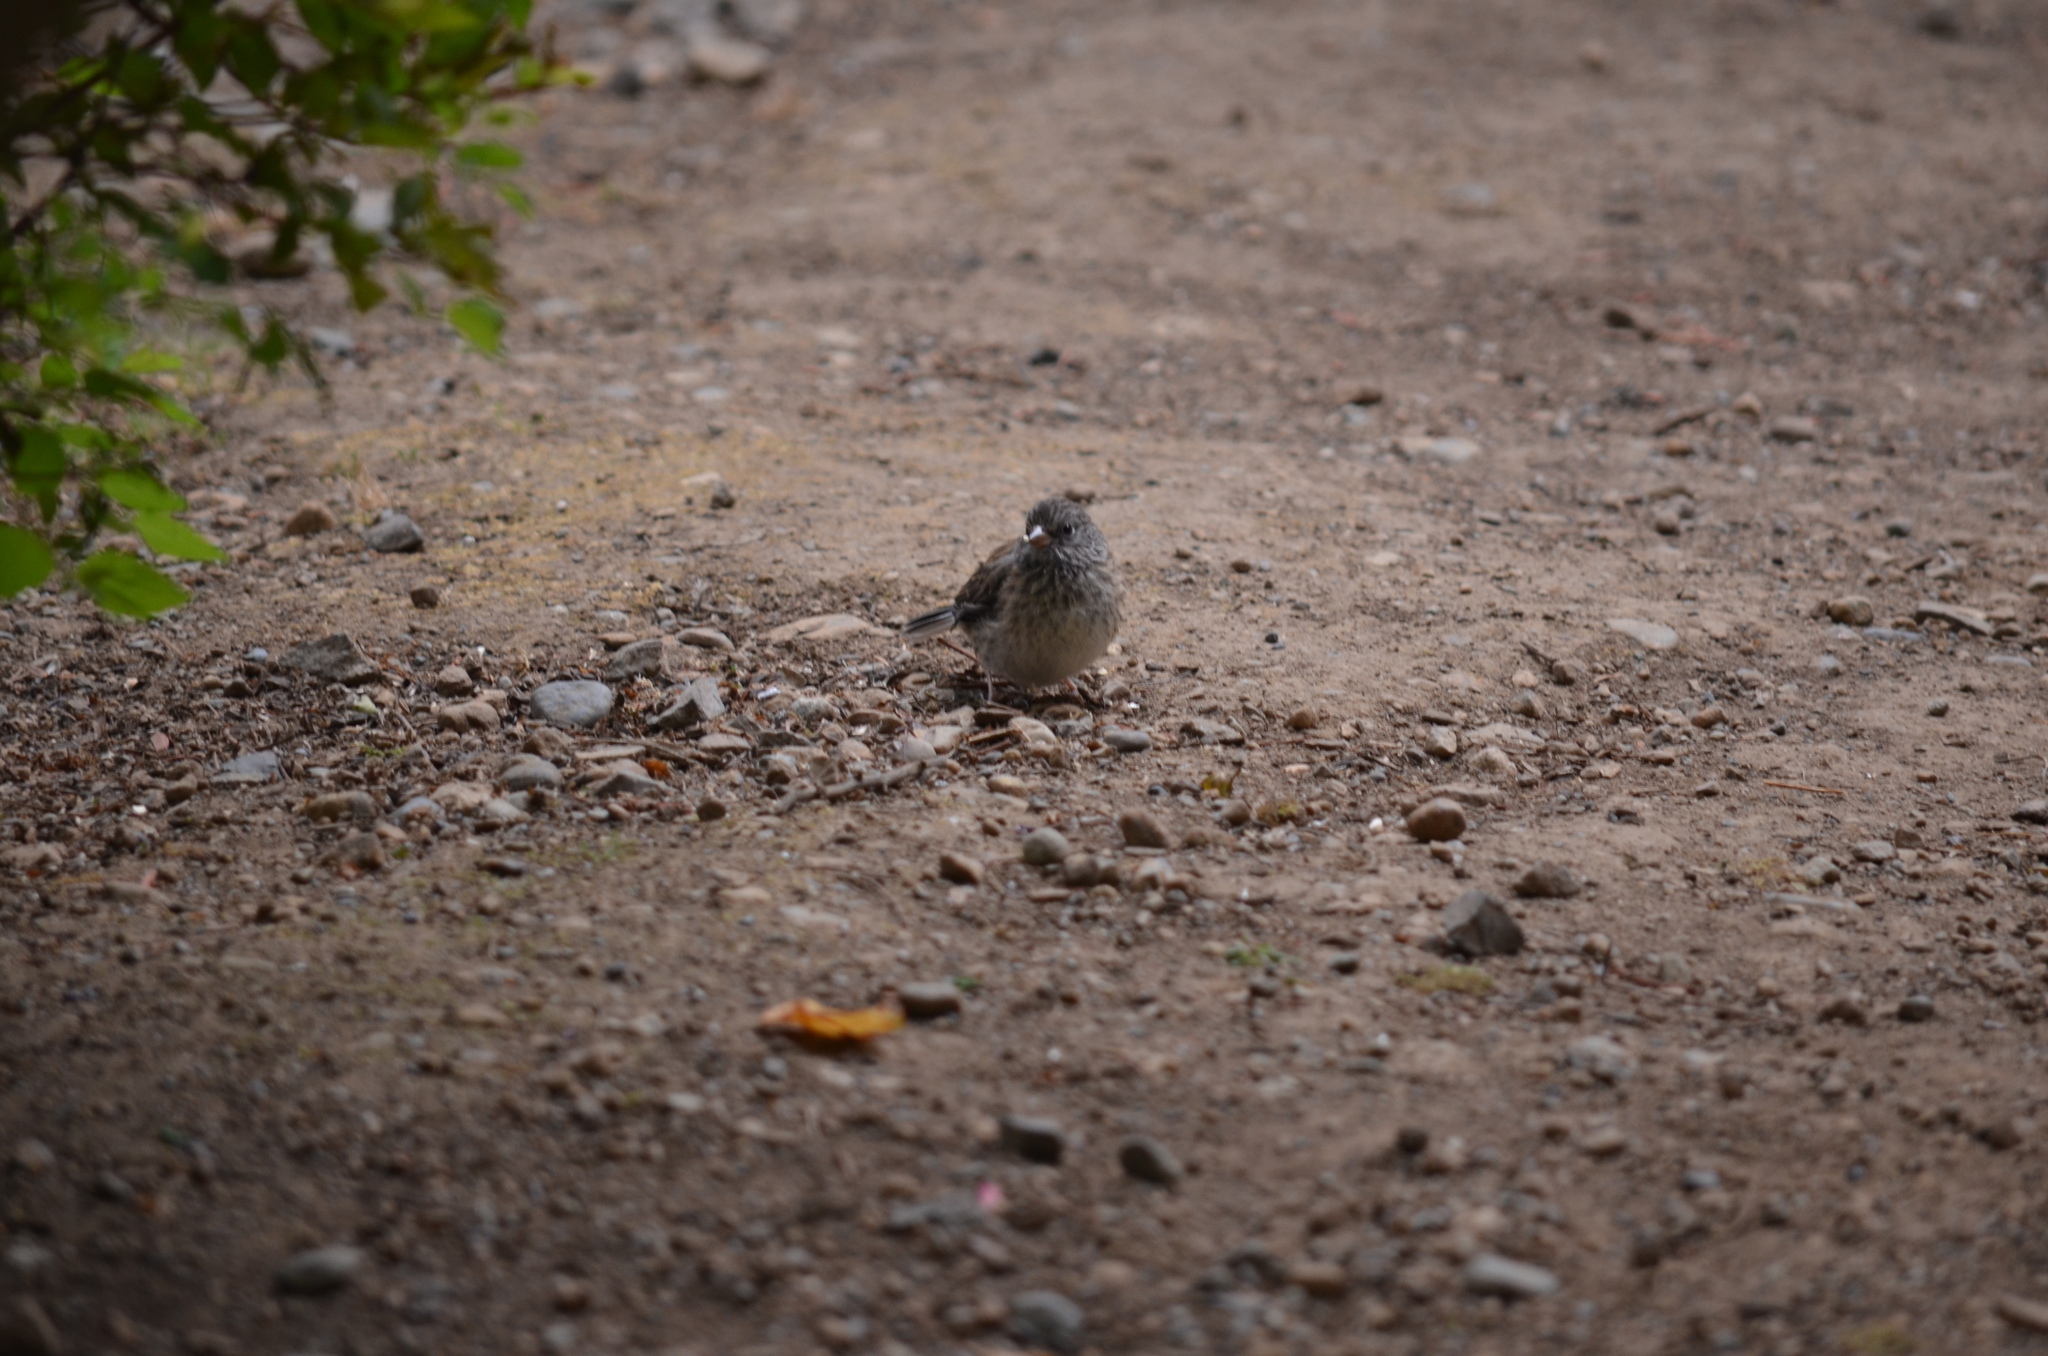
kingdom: Animalia
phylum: Chordata
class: Aves
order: Passeriformes
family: Passerellidae
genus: Junco
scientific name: Junco hyemalis
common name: Dark-eyed junco
